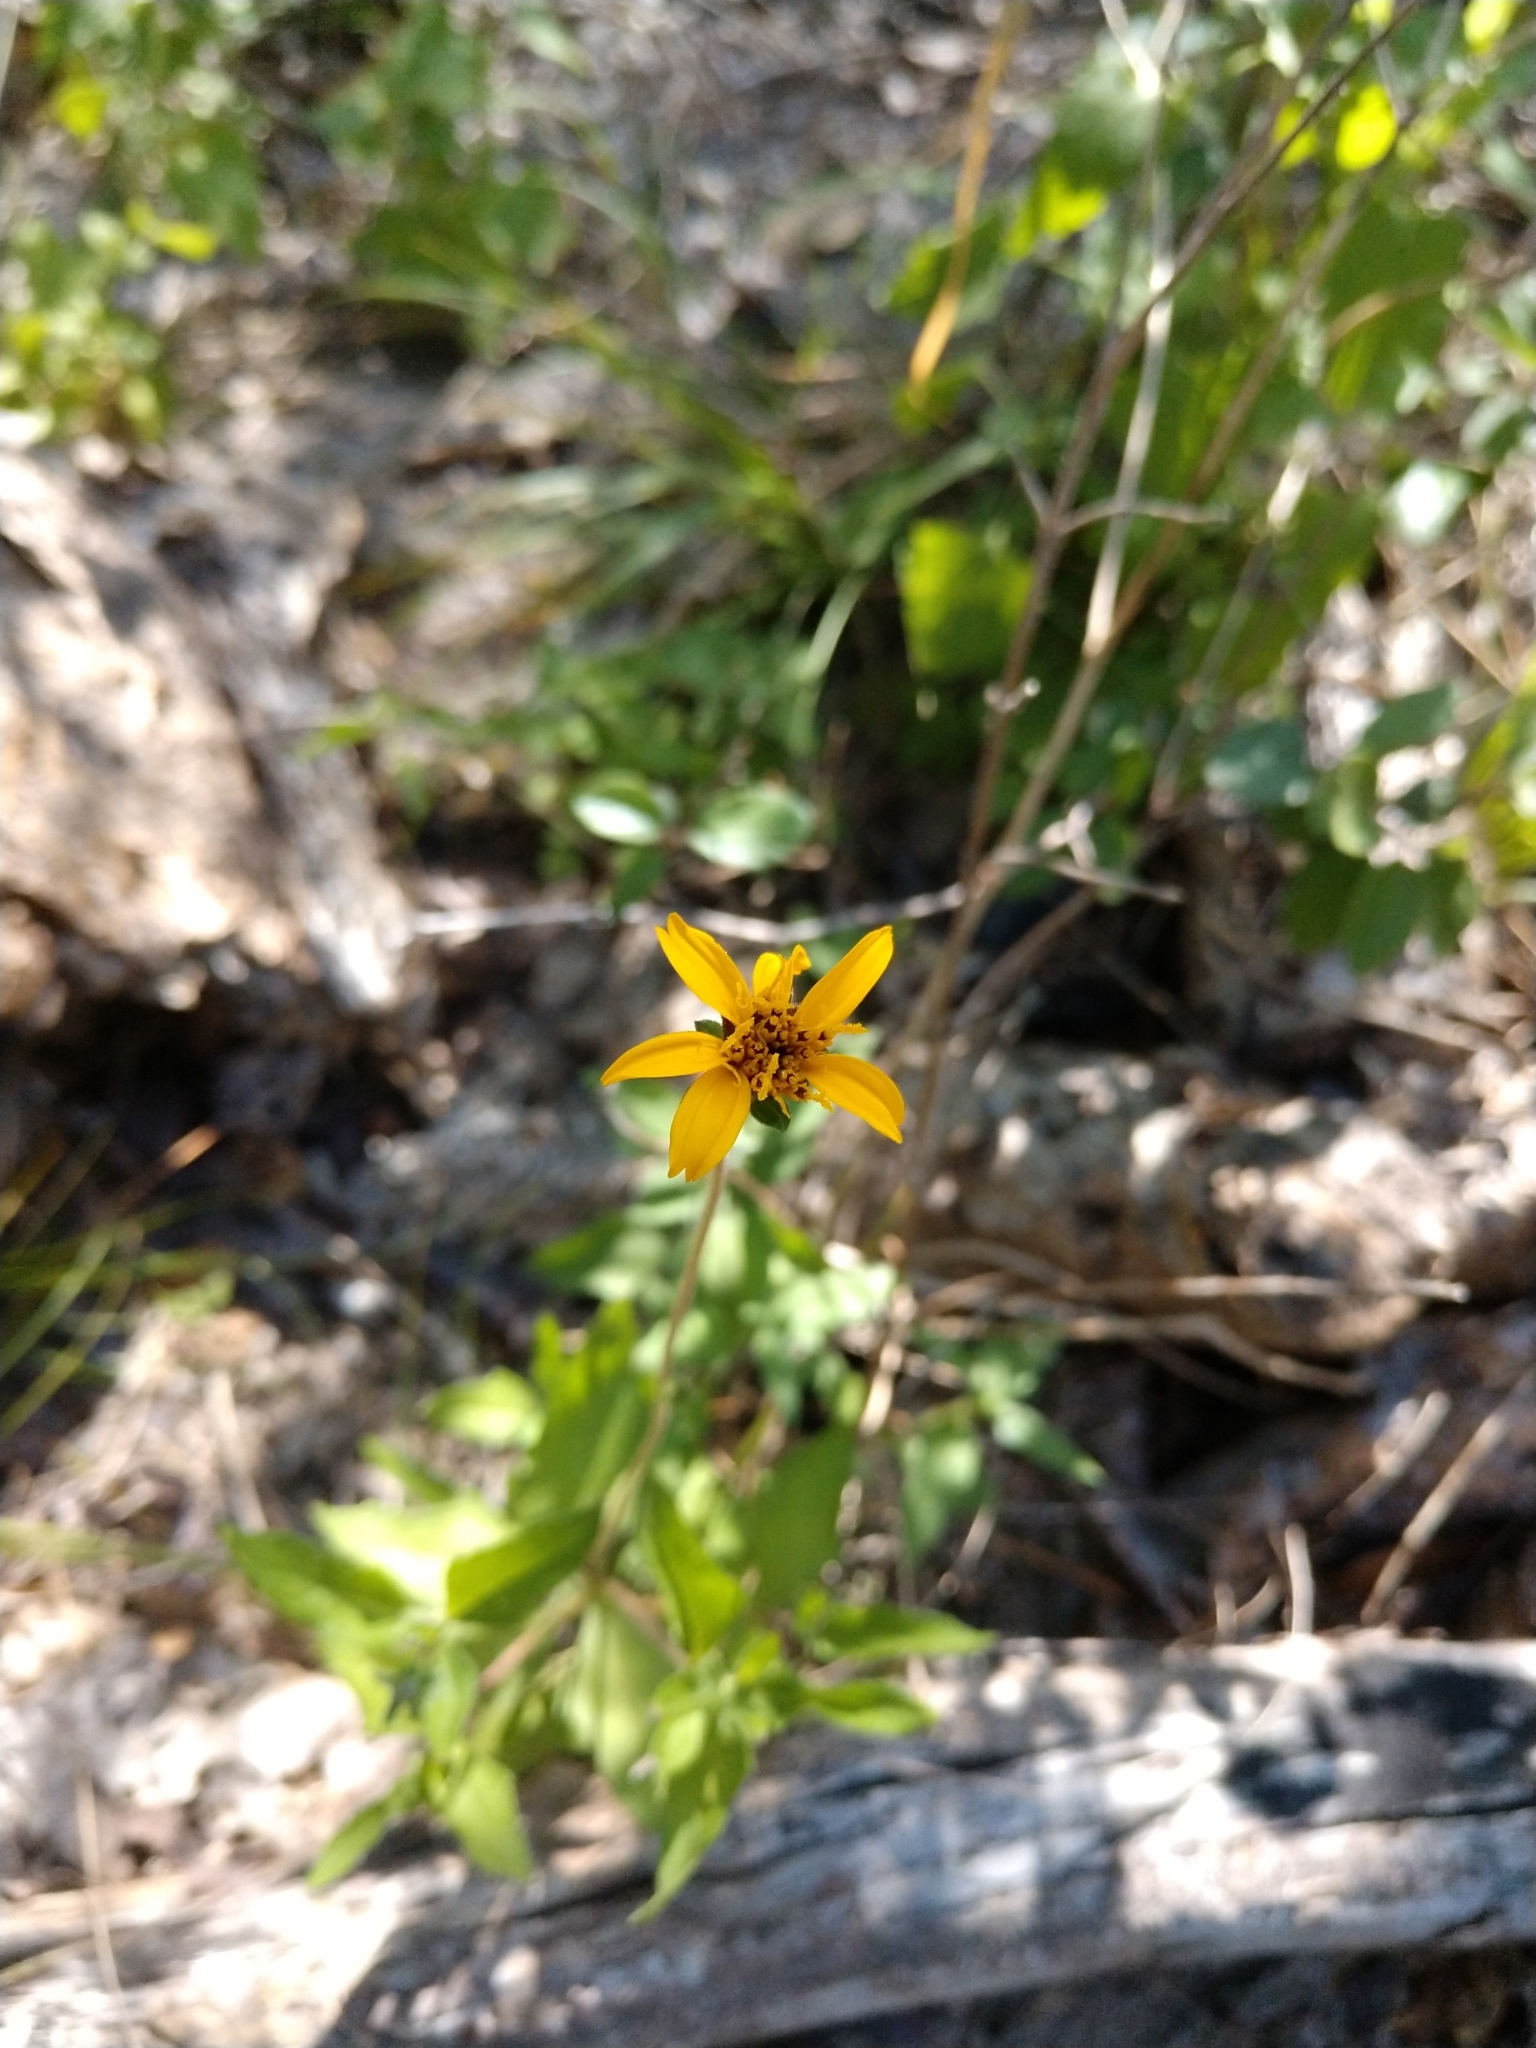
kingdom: Plantae
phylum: Tracheophyta
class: Magnoliopsida
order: Asterales
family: Asteraceae
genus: Wedelia
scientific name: Wedelia acapulcensis
